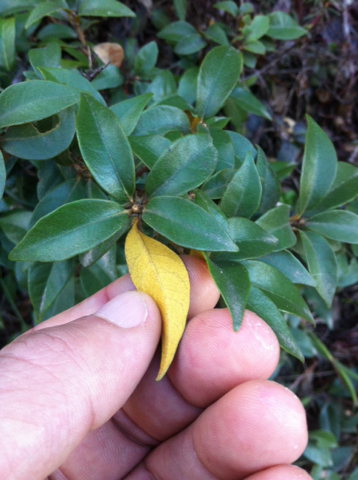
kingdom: Plantae
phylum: Tracheophyta
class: Magnoliopsida
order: Fagales
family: Fagaceae
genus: Chrysolepis
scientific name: Chrysolepis chrysophylla
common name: Giant chinquapin
